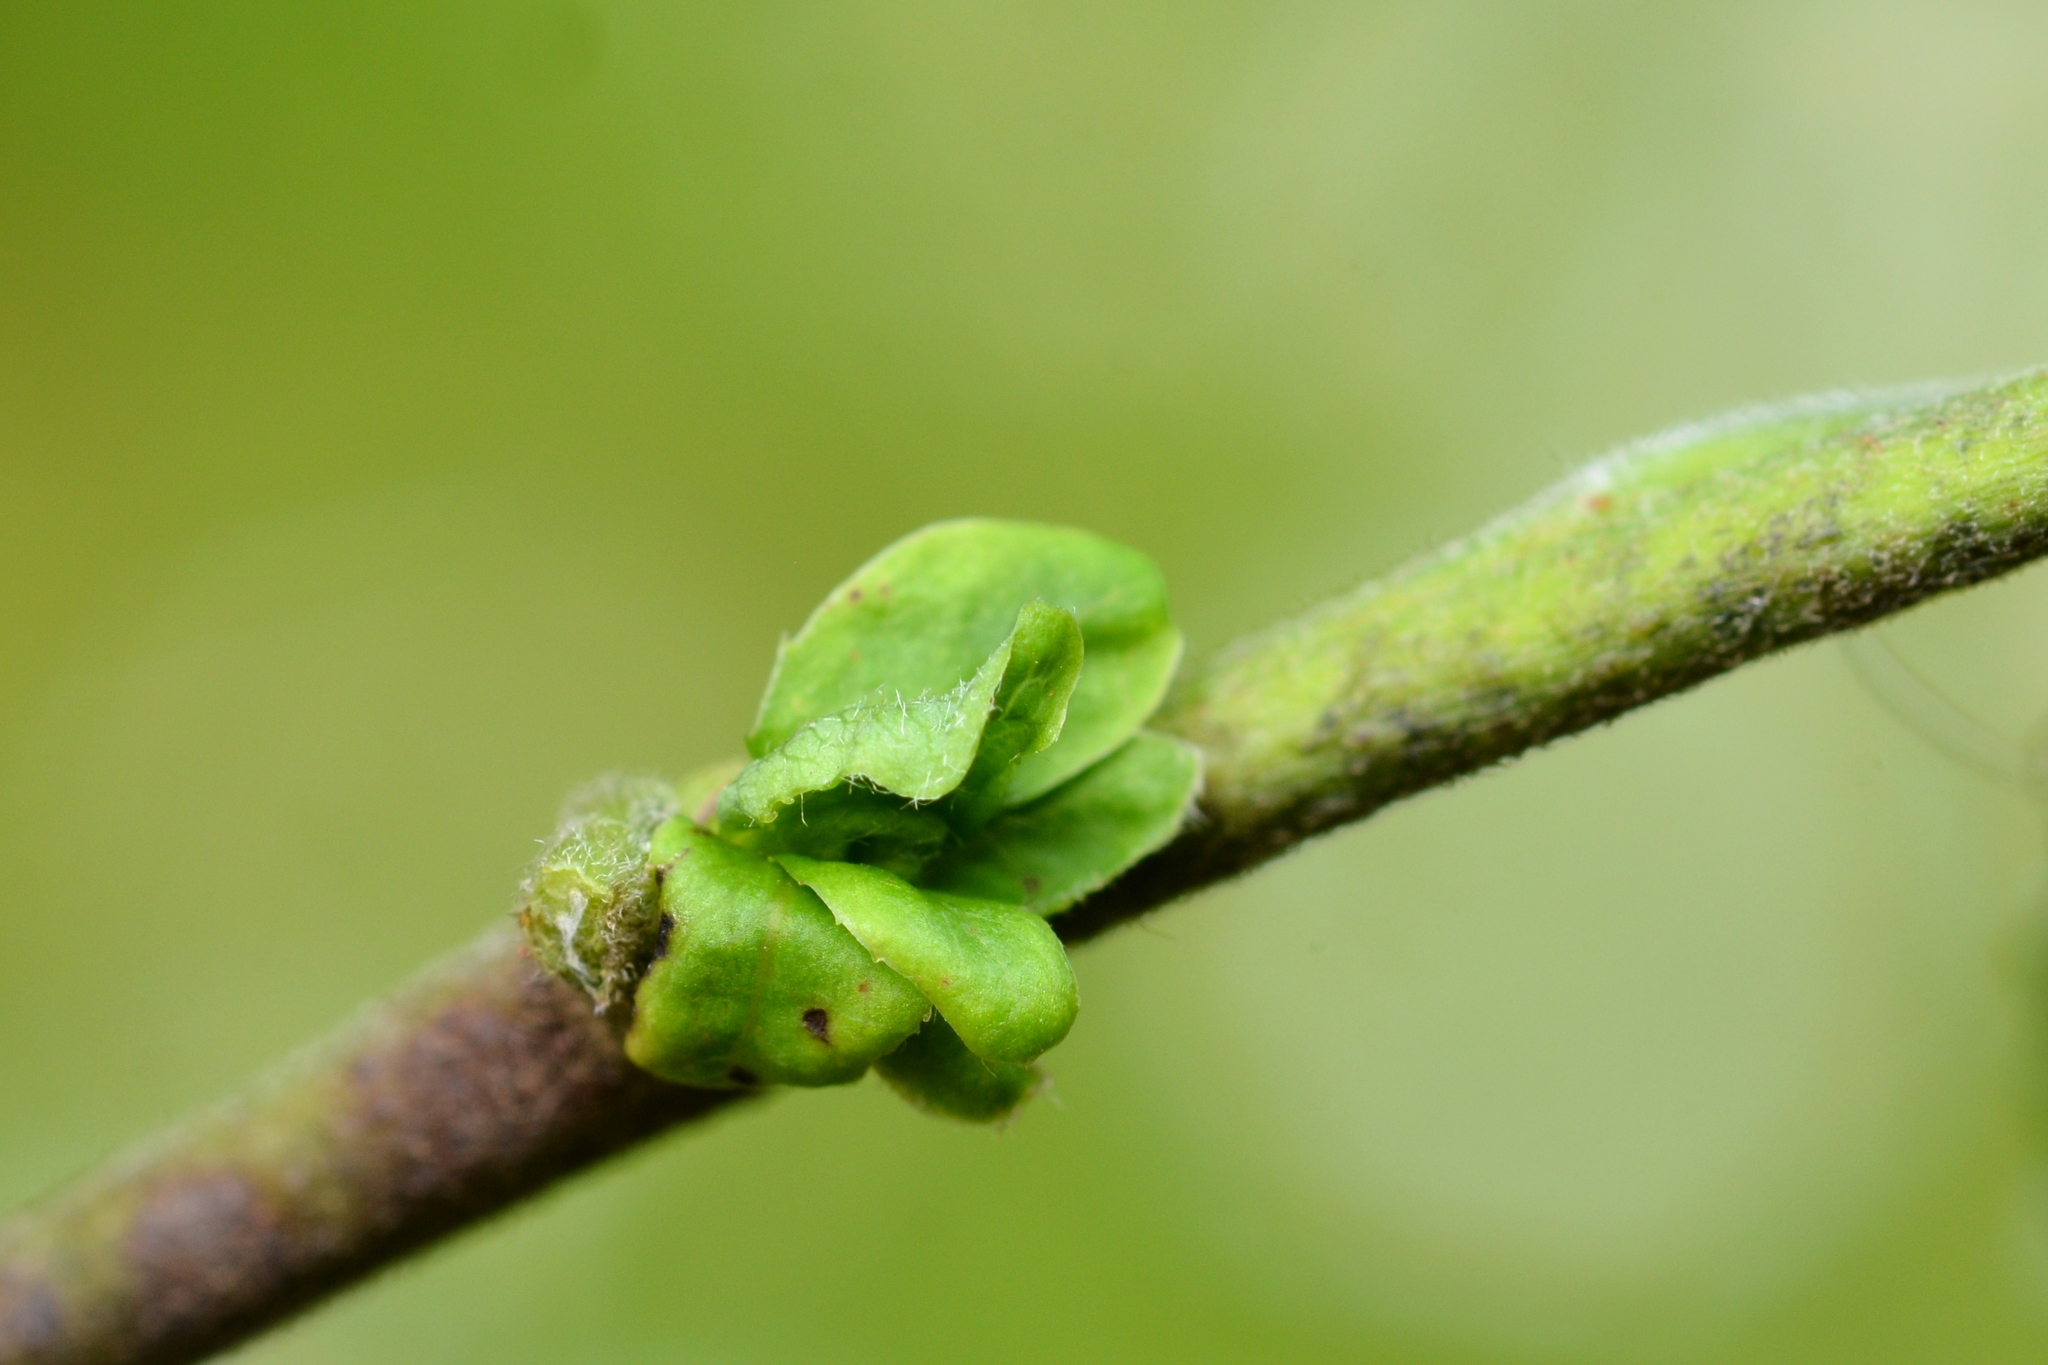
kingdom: Animalia
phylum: Arthropoda
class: Insecta
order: Diptera
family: Cecidomyiidae
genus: Rabdophaga
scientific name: Rabdophaga clavifex
